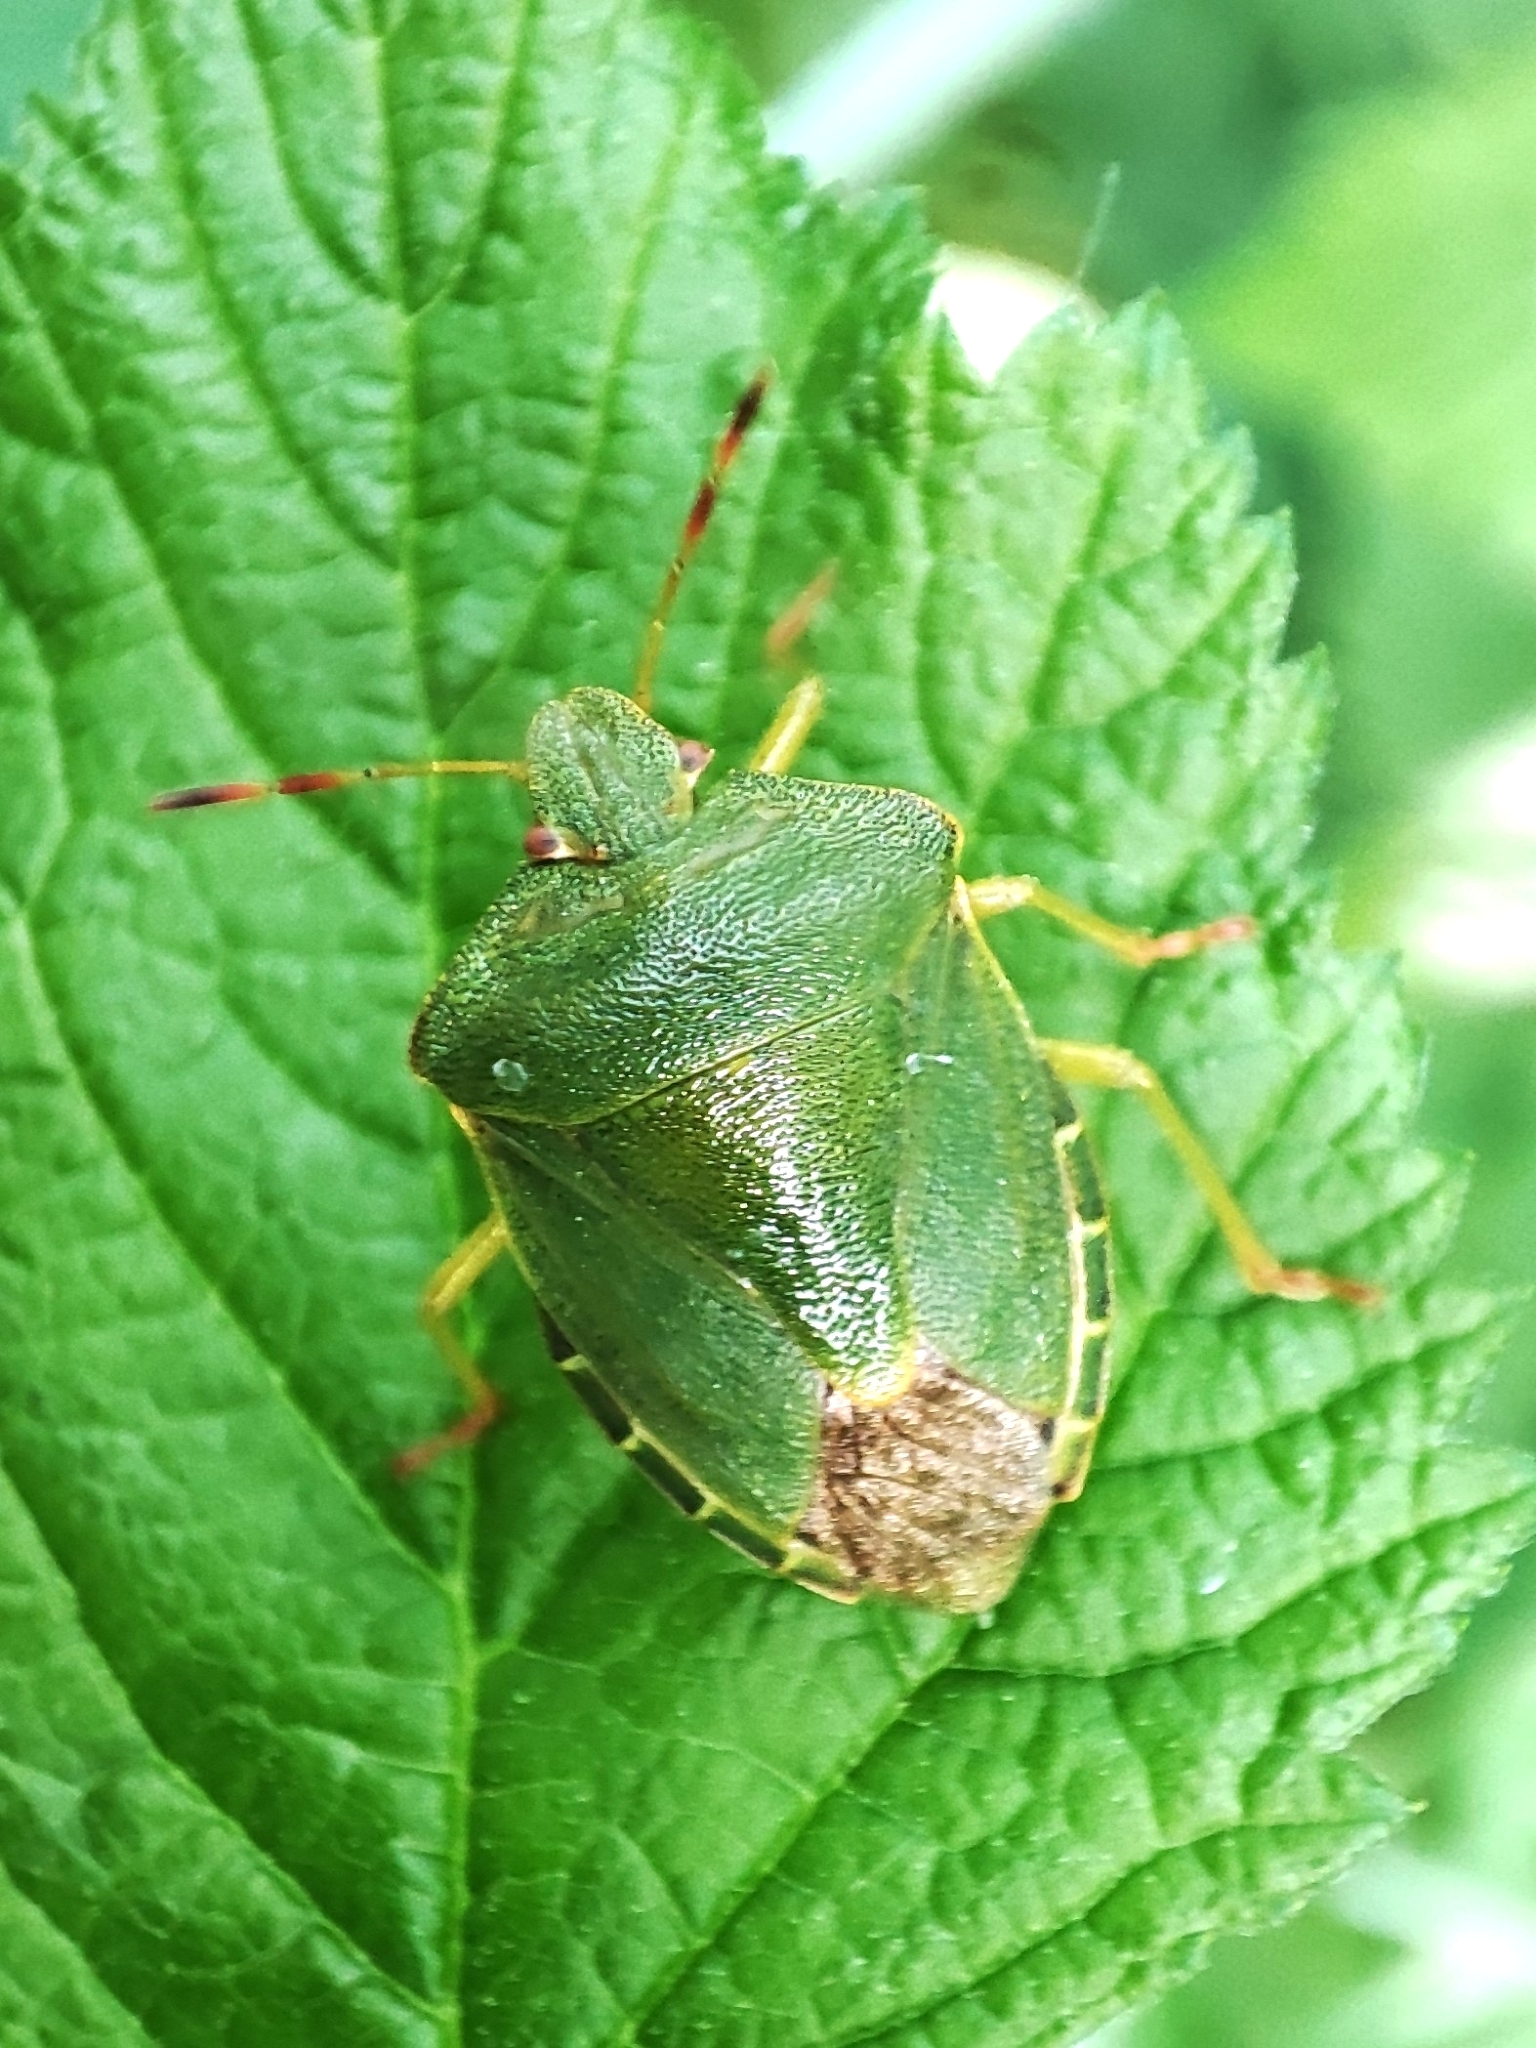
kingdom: Animalia
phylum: Arthropoda
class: Insecta
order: Hemiptera
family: Pentatomidae
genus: Palomena
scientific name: Palomena prasina
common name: Green shieldbug
